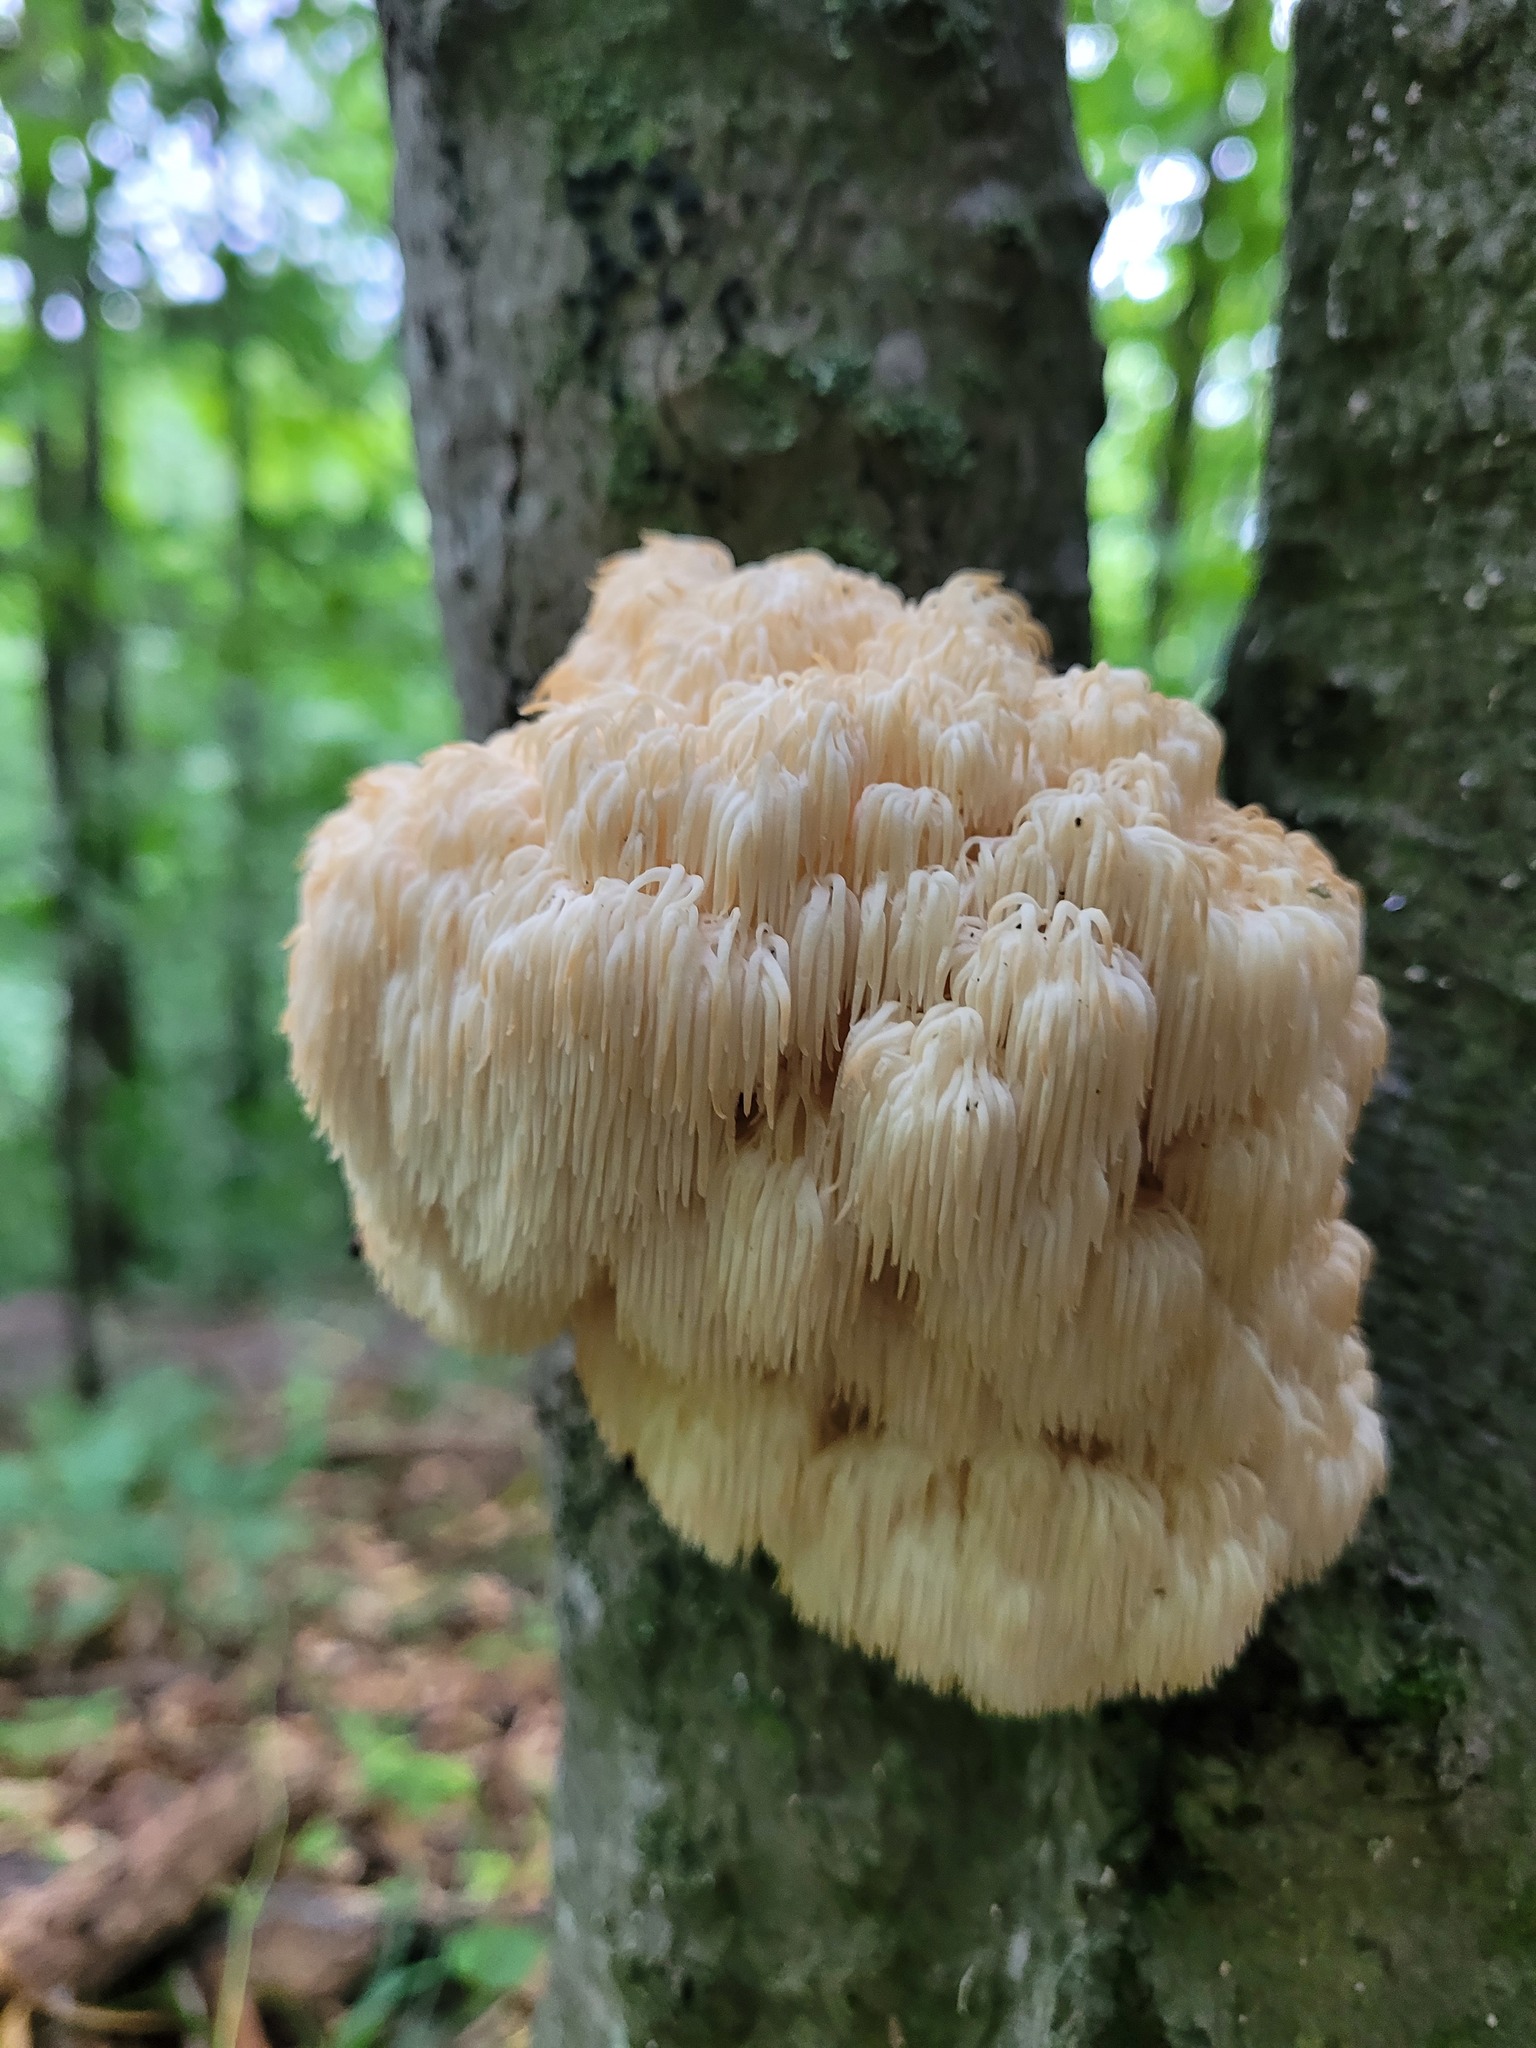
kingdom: Fungi
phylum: Basidiomycota
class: Agaricomycetes
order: Russulales
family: Hericiaceae
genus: Hericium
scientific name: Hericium americanum
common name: Bear's head tooth
